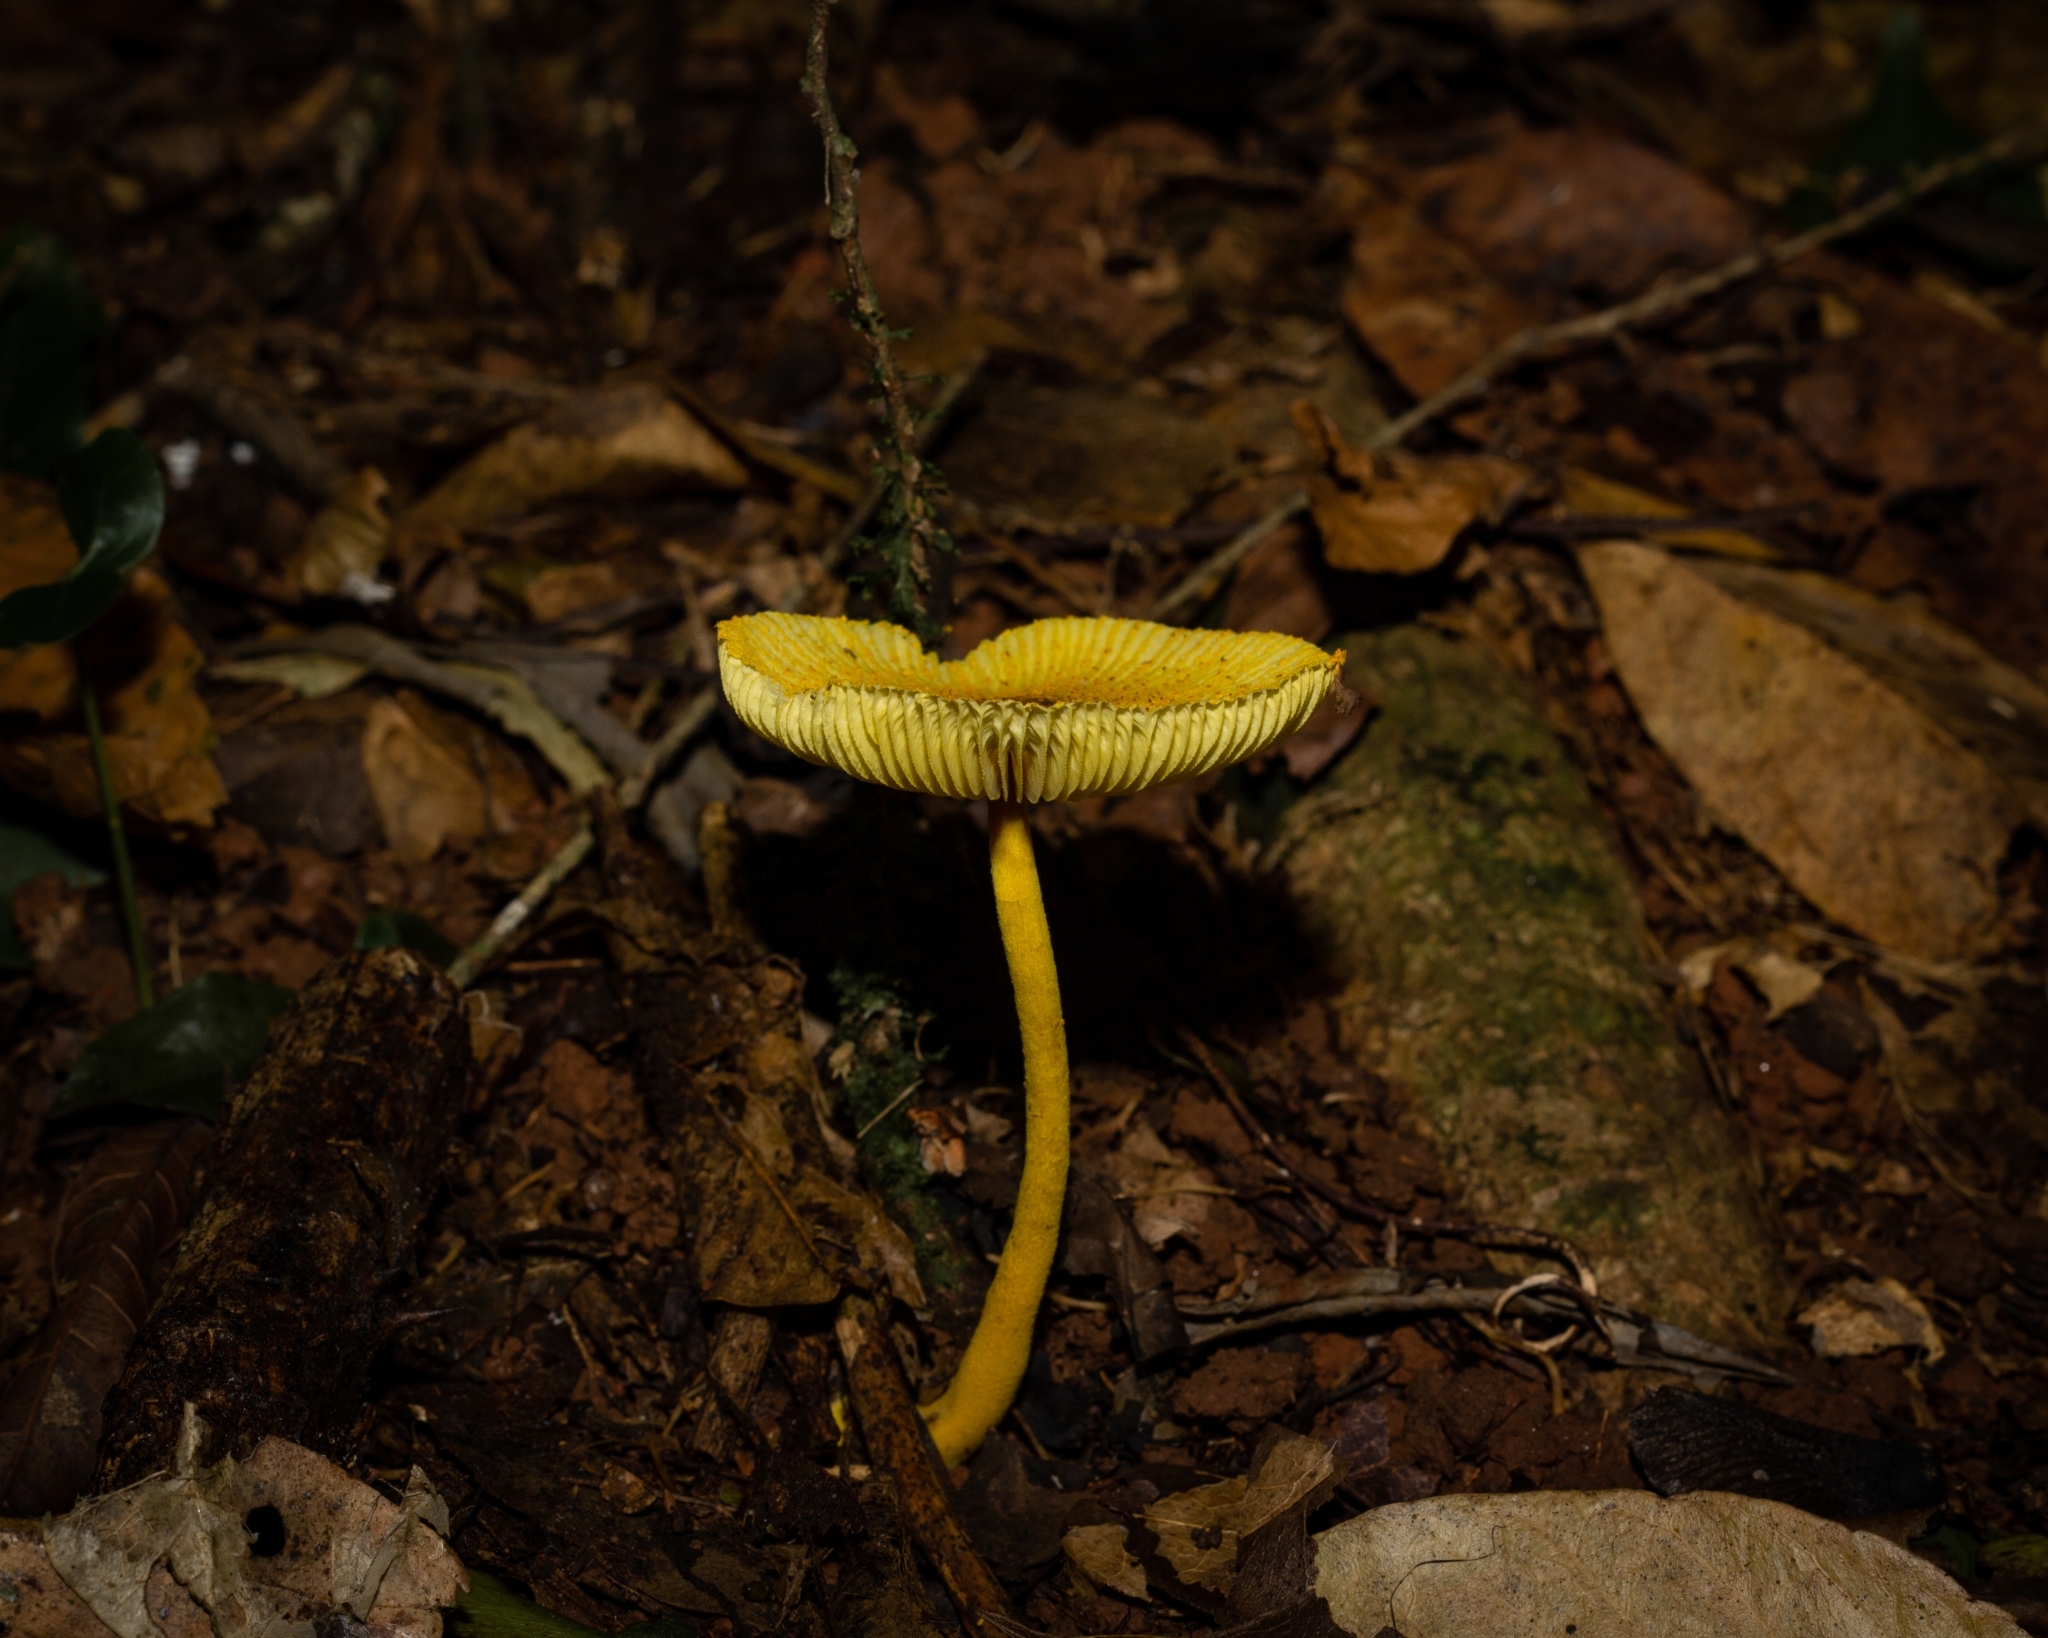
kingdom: Fungi
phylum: Basidiomycota
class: Agaricomycetes
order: Agaricales
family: Agaricaceae
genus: Leucocoprinus
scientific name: Leucocoprinus brunneoluteus
